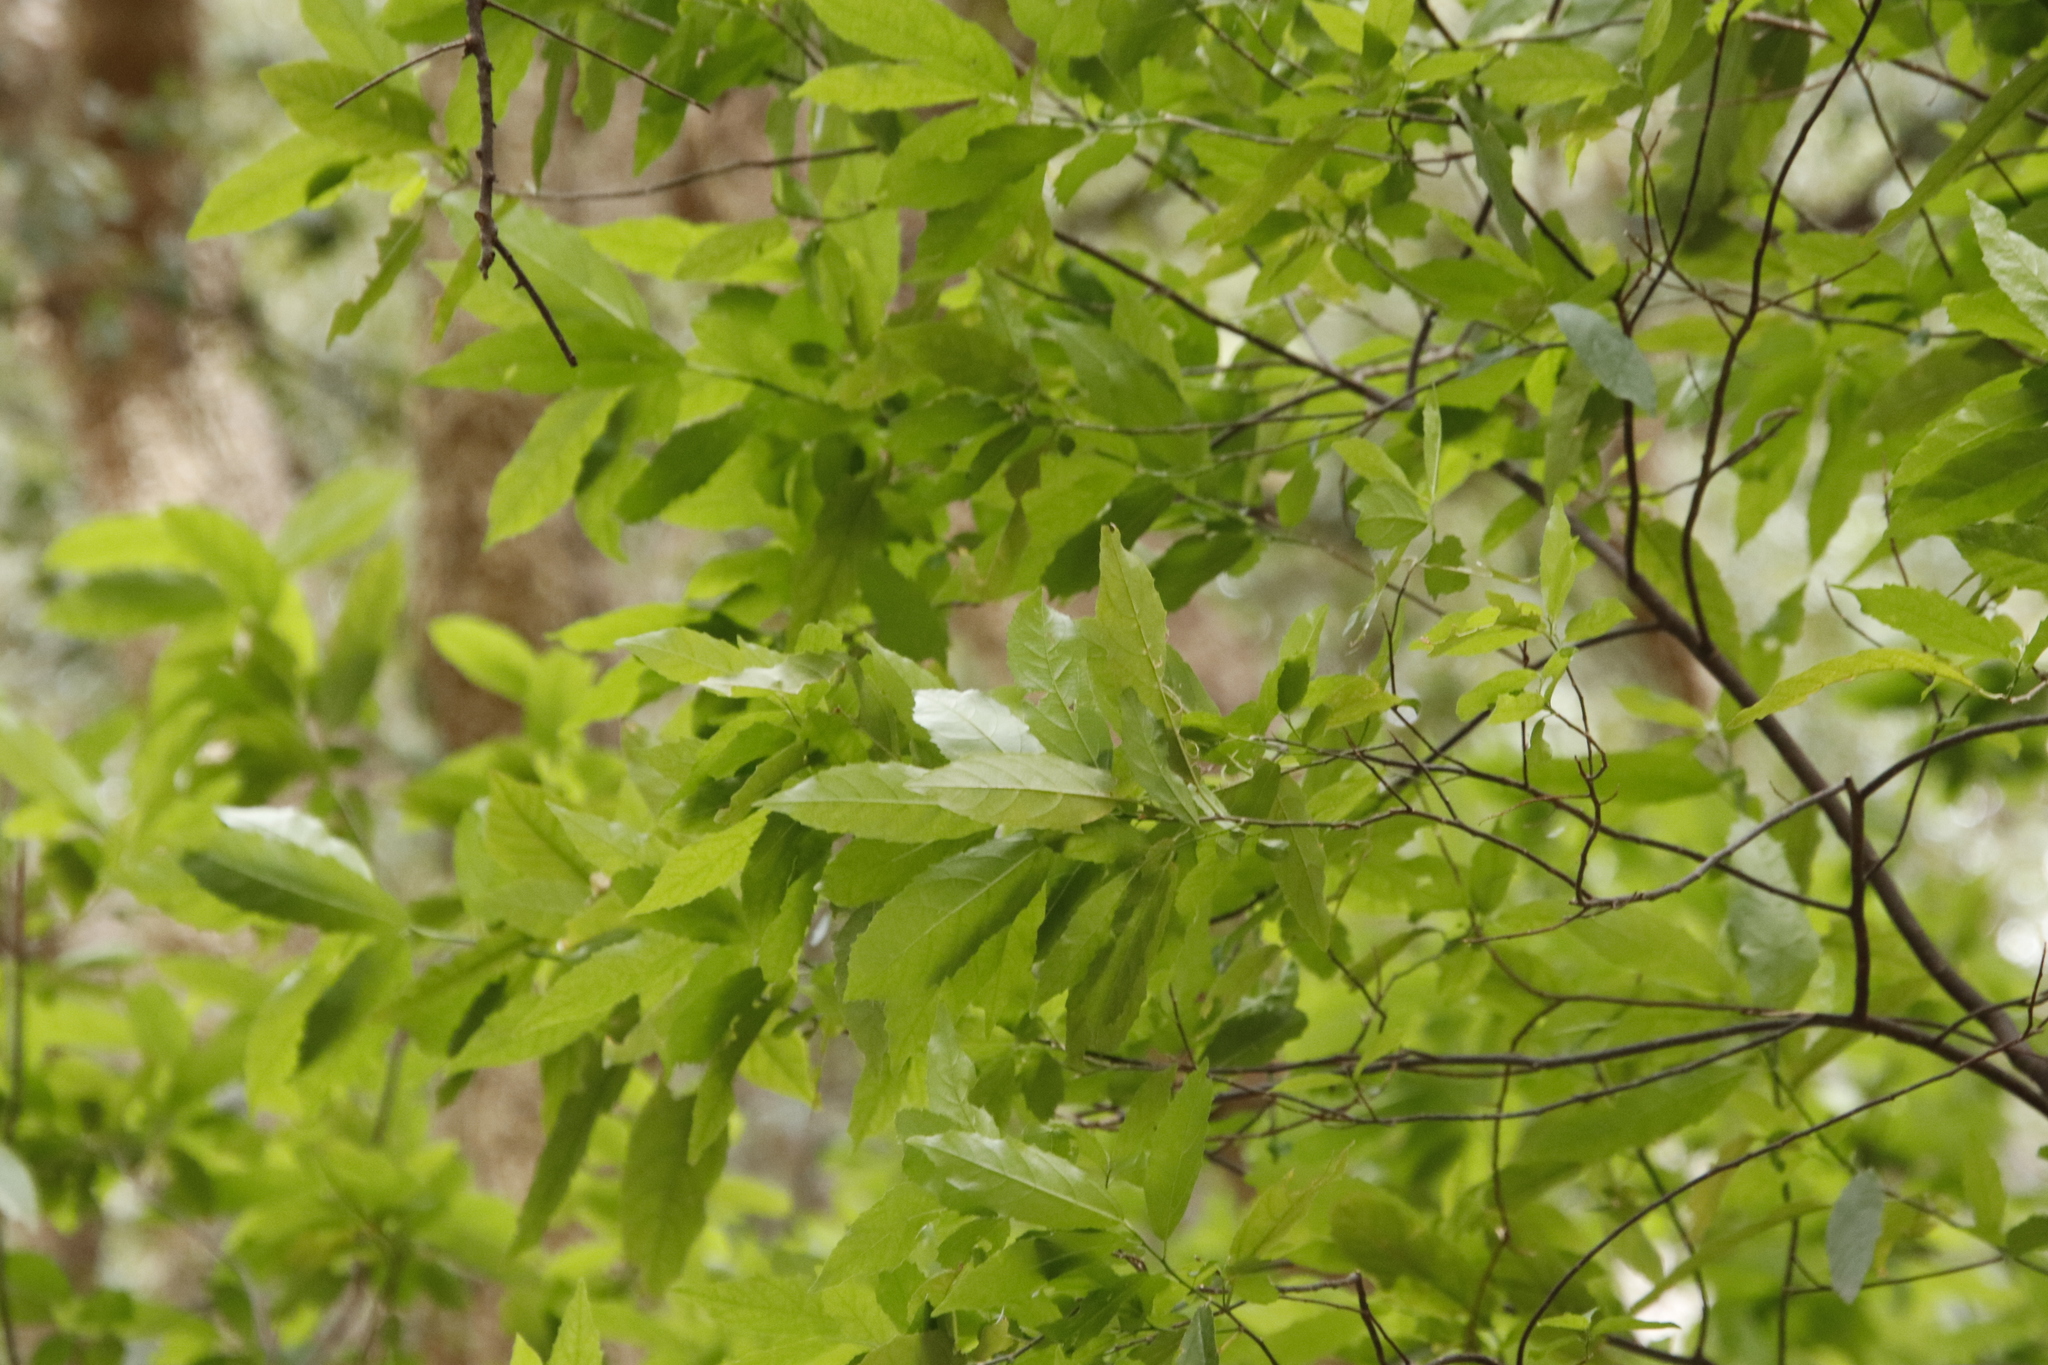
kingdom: Plantae
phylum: Tracheophyta
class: Magnoliopsida
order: Malpighiales
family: Achariaceae
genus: Kiggelaria
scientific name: Kiggelaria africana
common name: Wild peach
